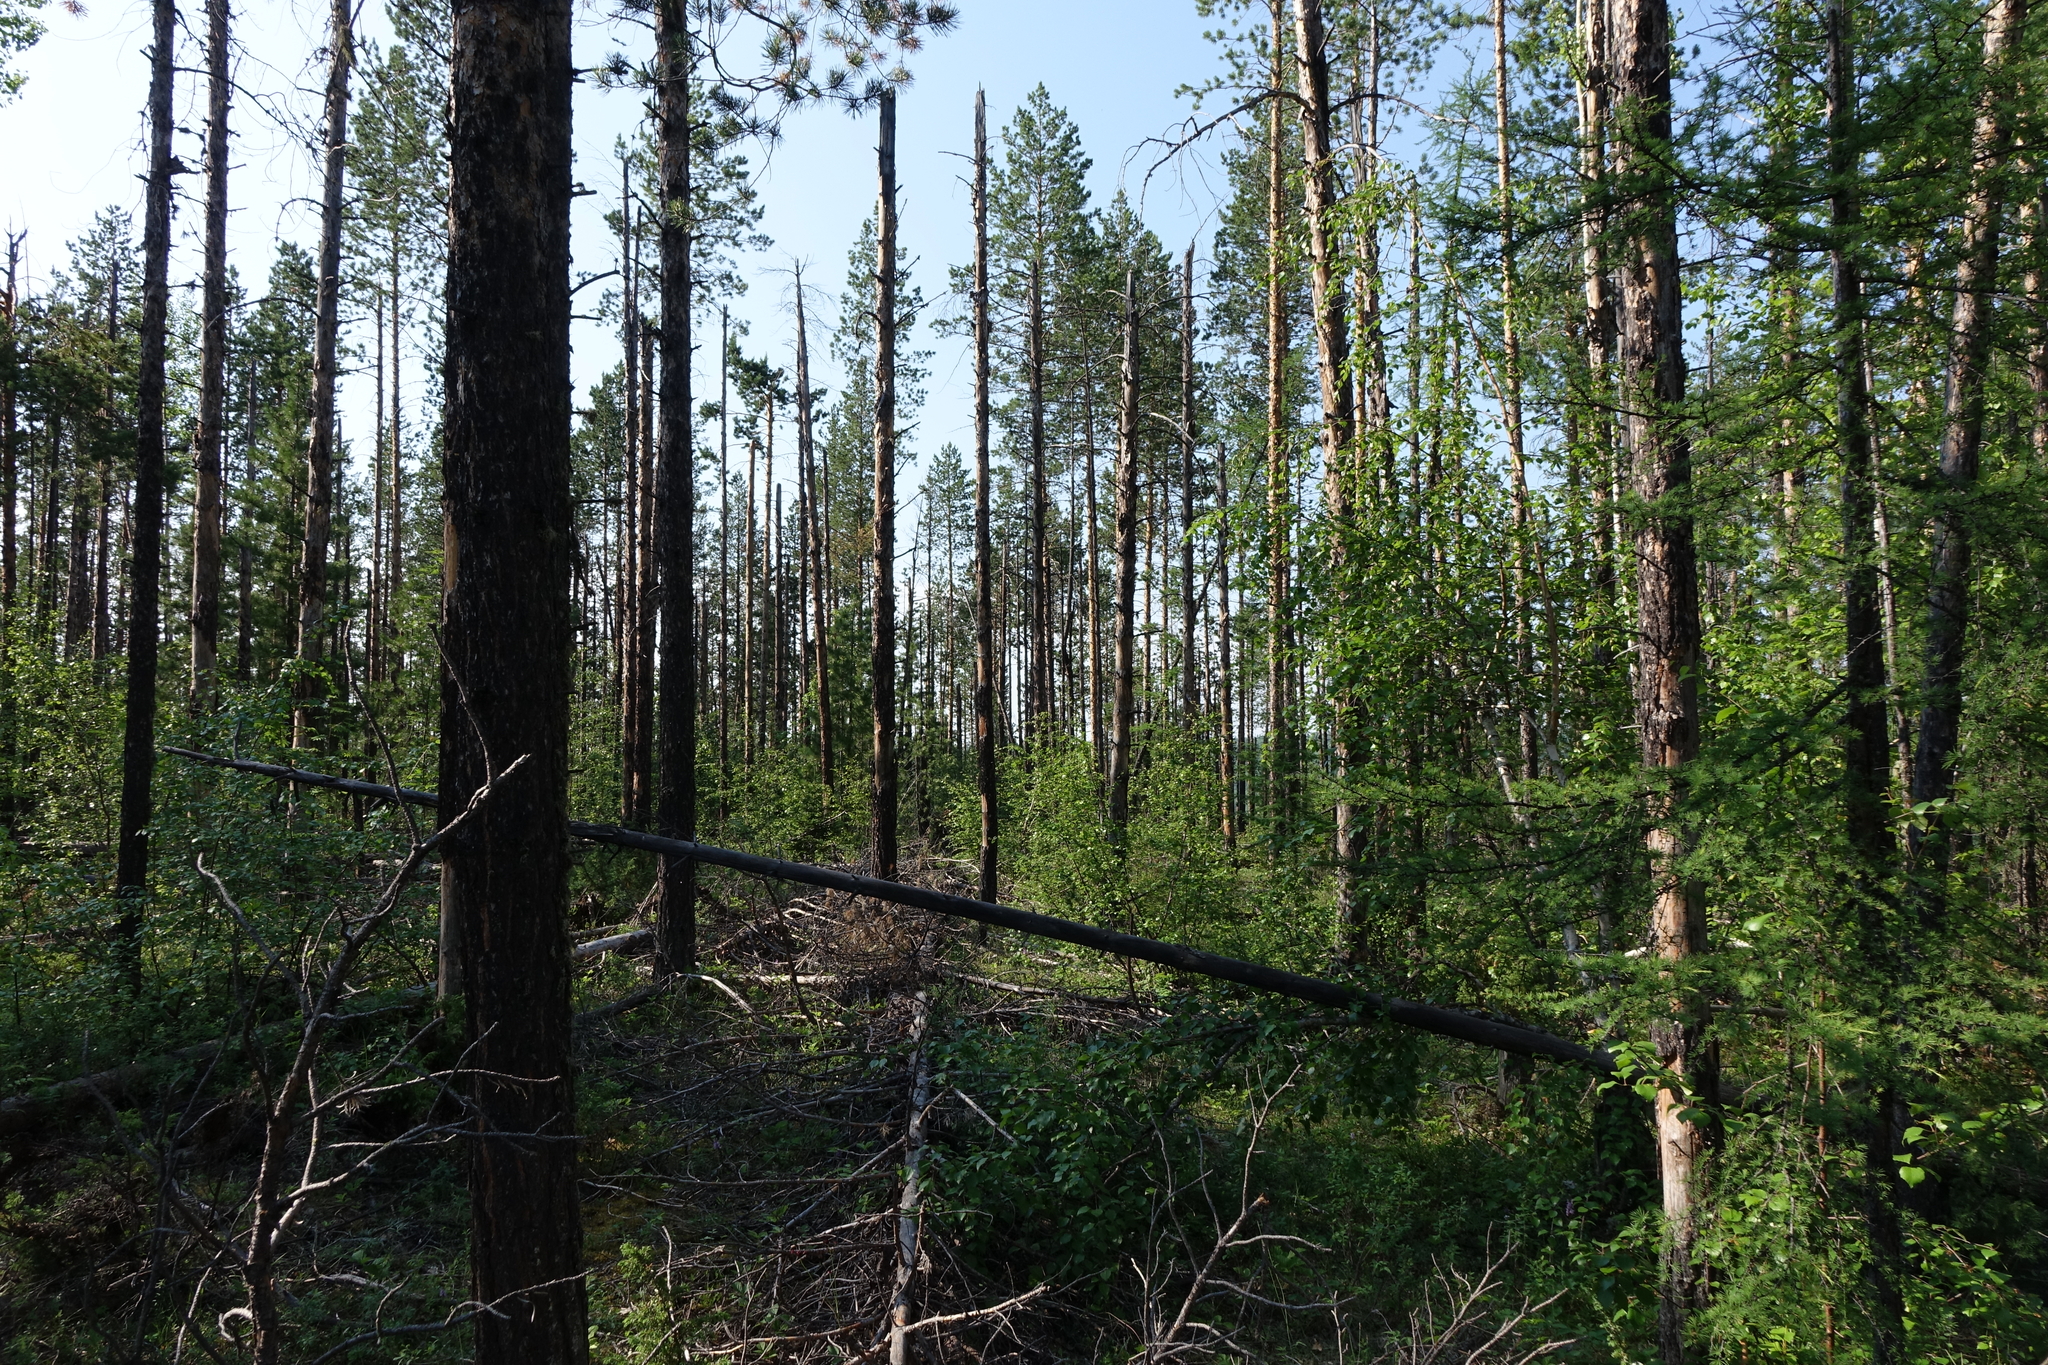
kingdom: Plantae
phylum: Tracheophyta
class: Pinopsida
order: Pinales
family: Pinaceae
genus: Pinus
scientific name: Pinus sylvestris
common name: Scots pine
